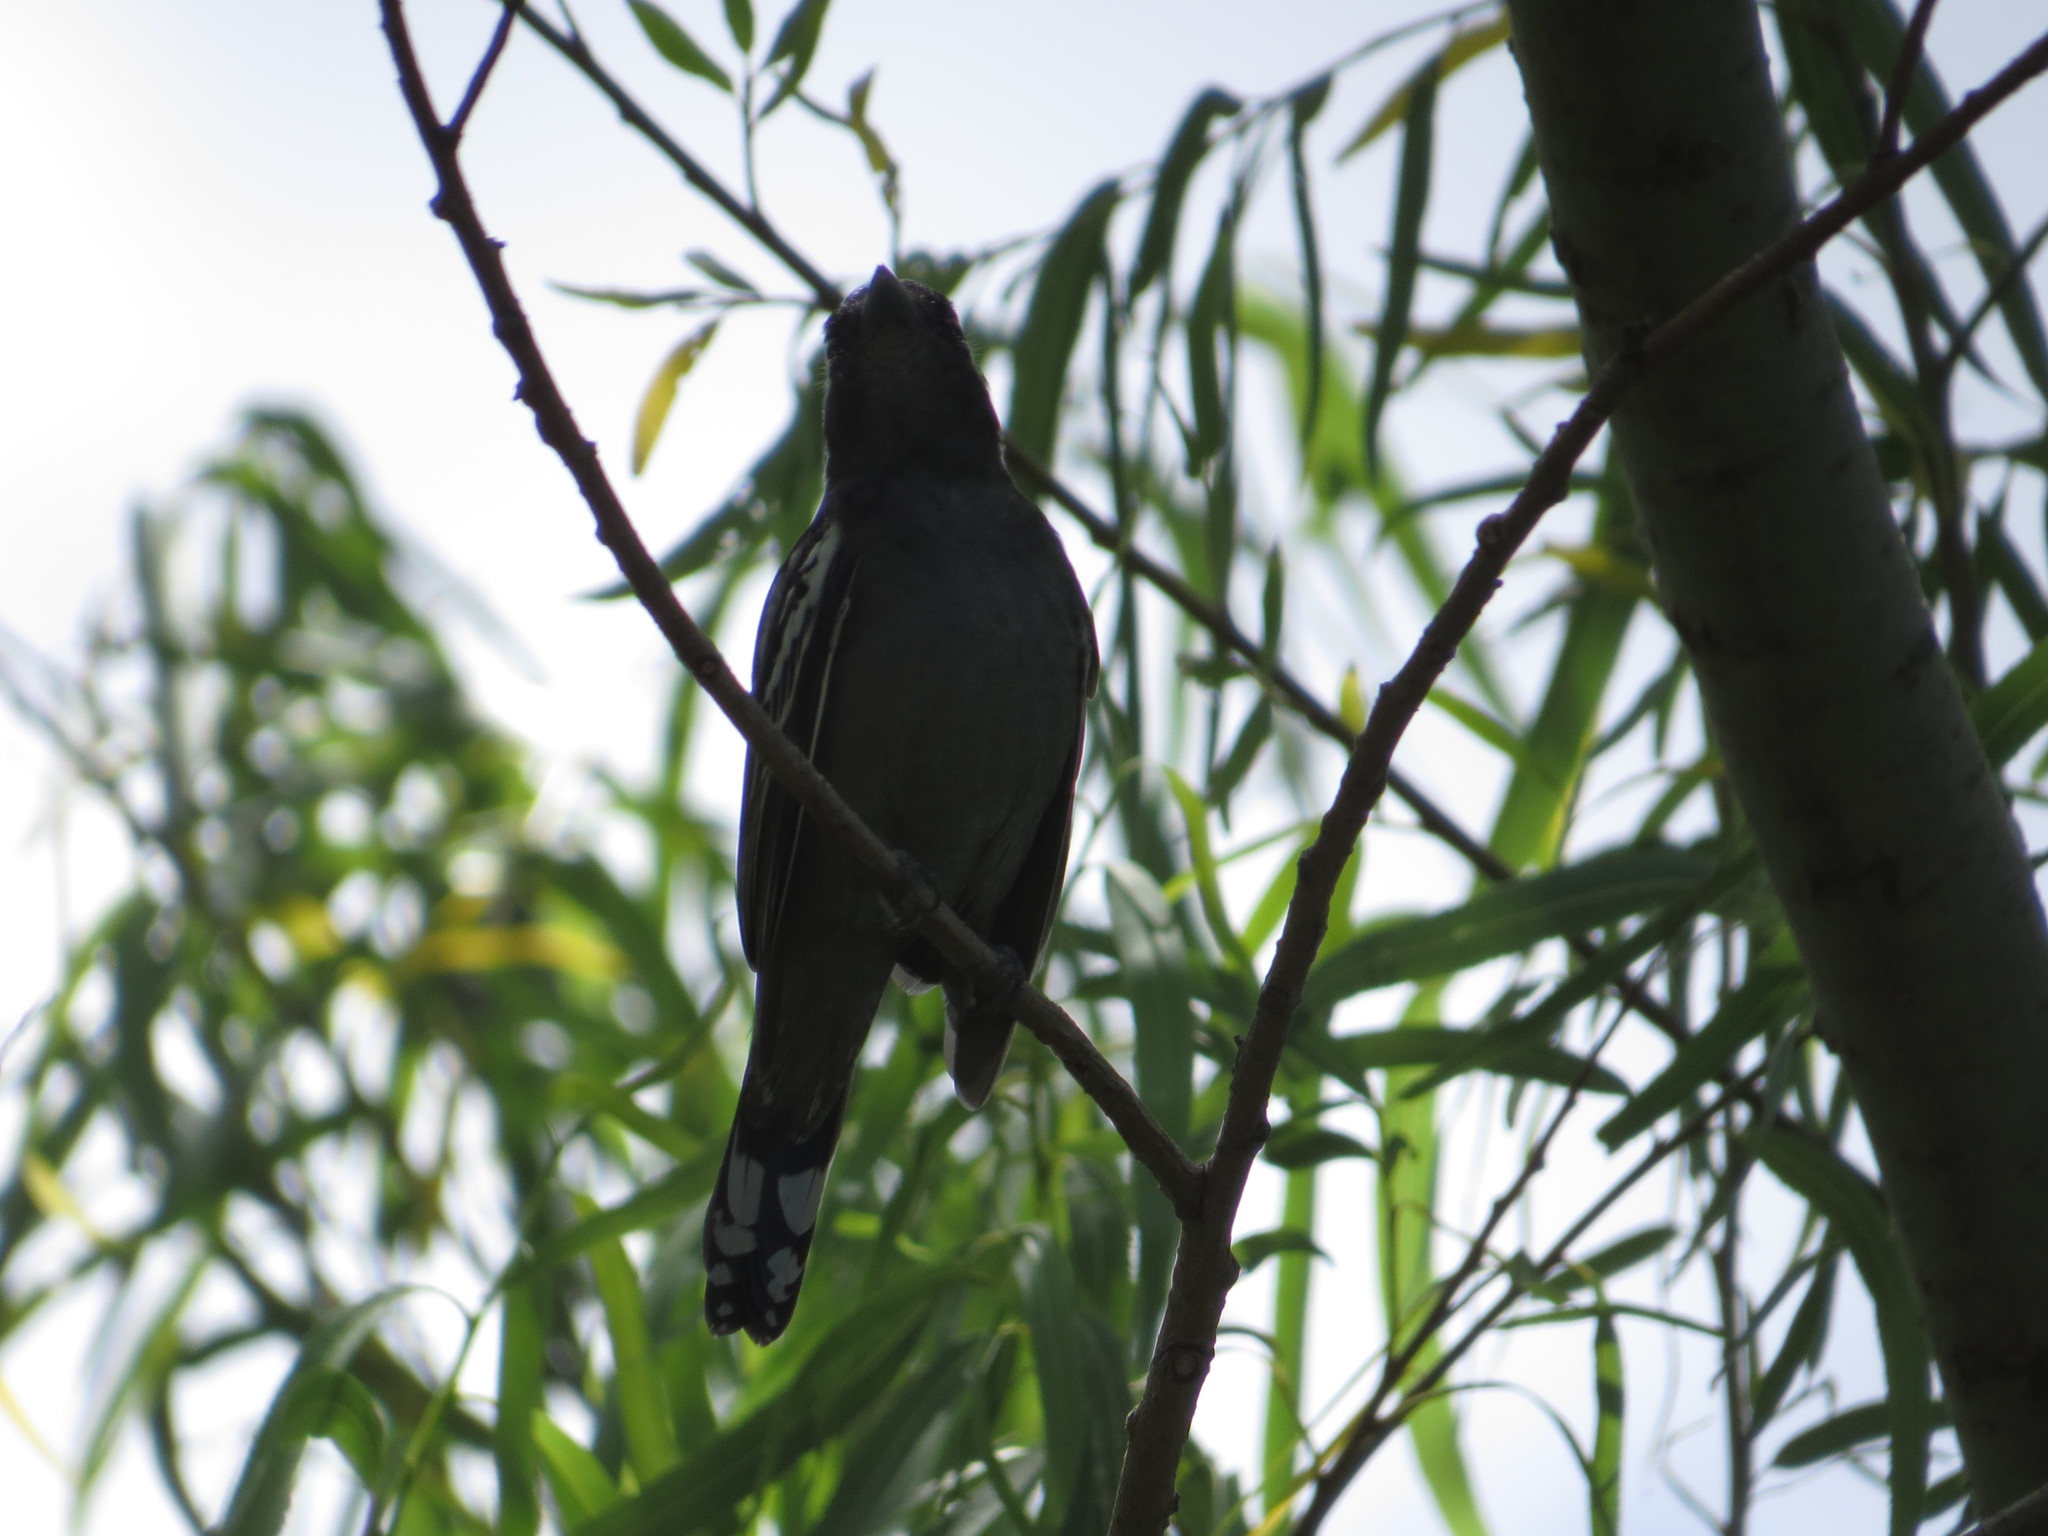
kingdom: Animalia
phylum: Chordata
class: Aves
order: Passeriformes
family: Cotingidae
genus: Pachyramphus
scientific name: Pachyramphus polychopterus
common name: White-winged becard
